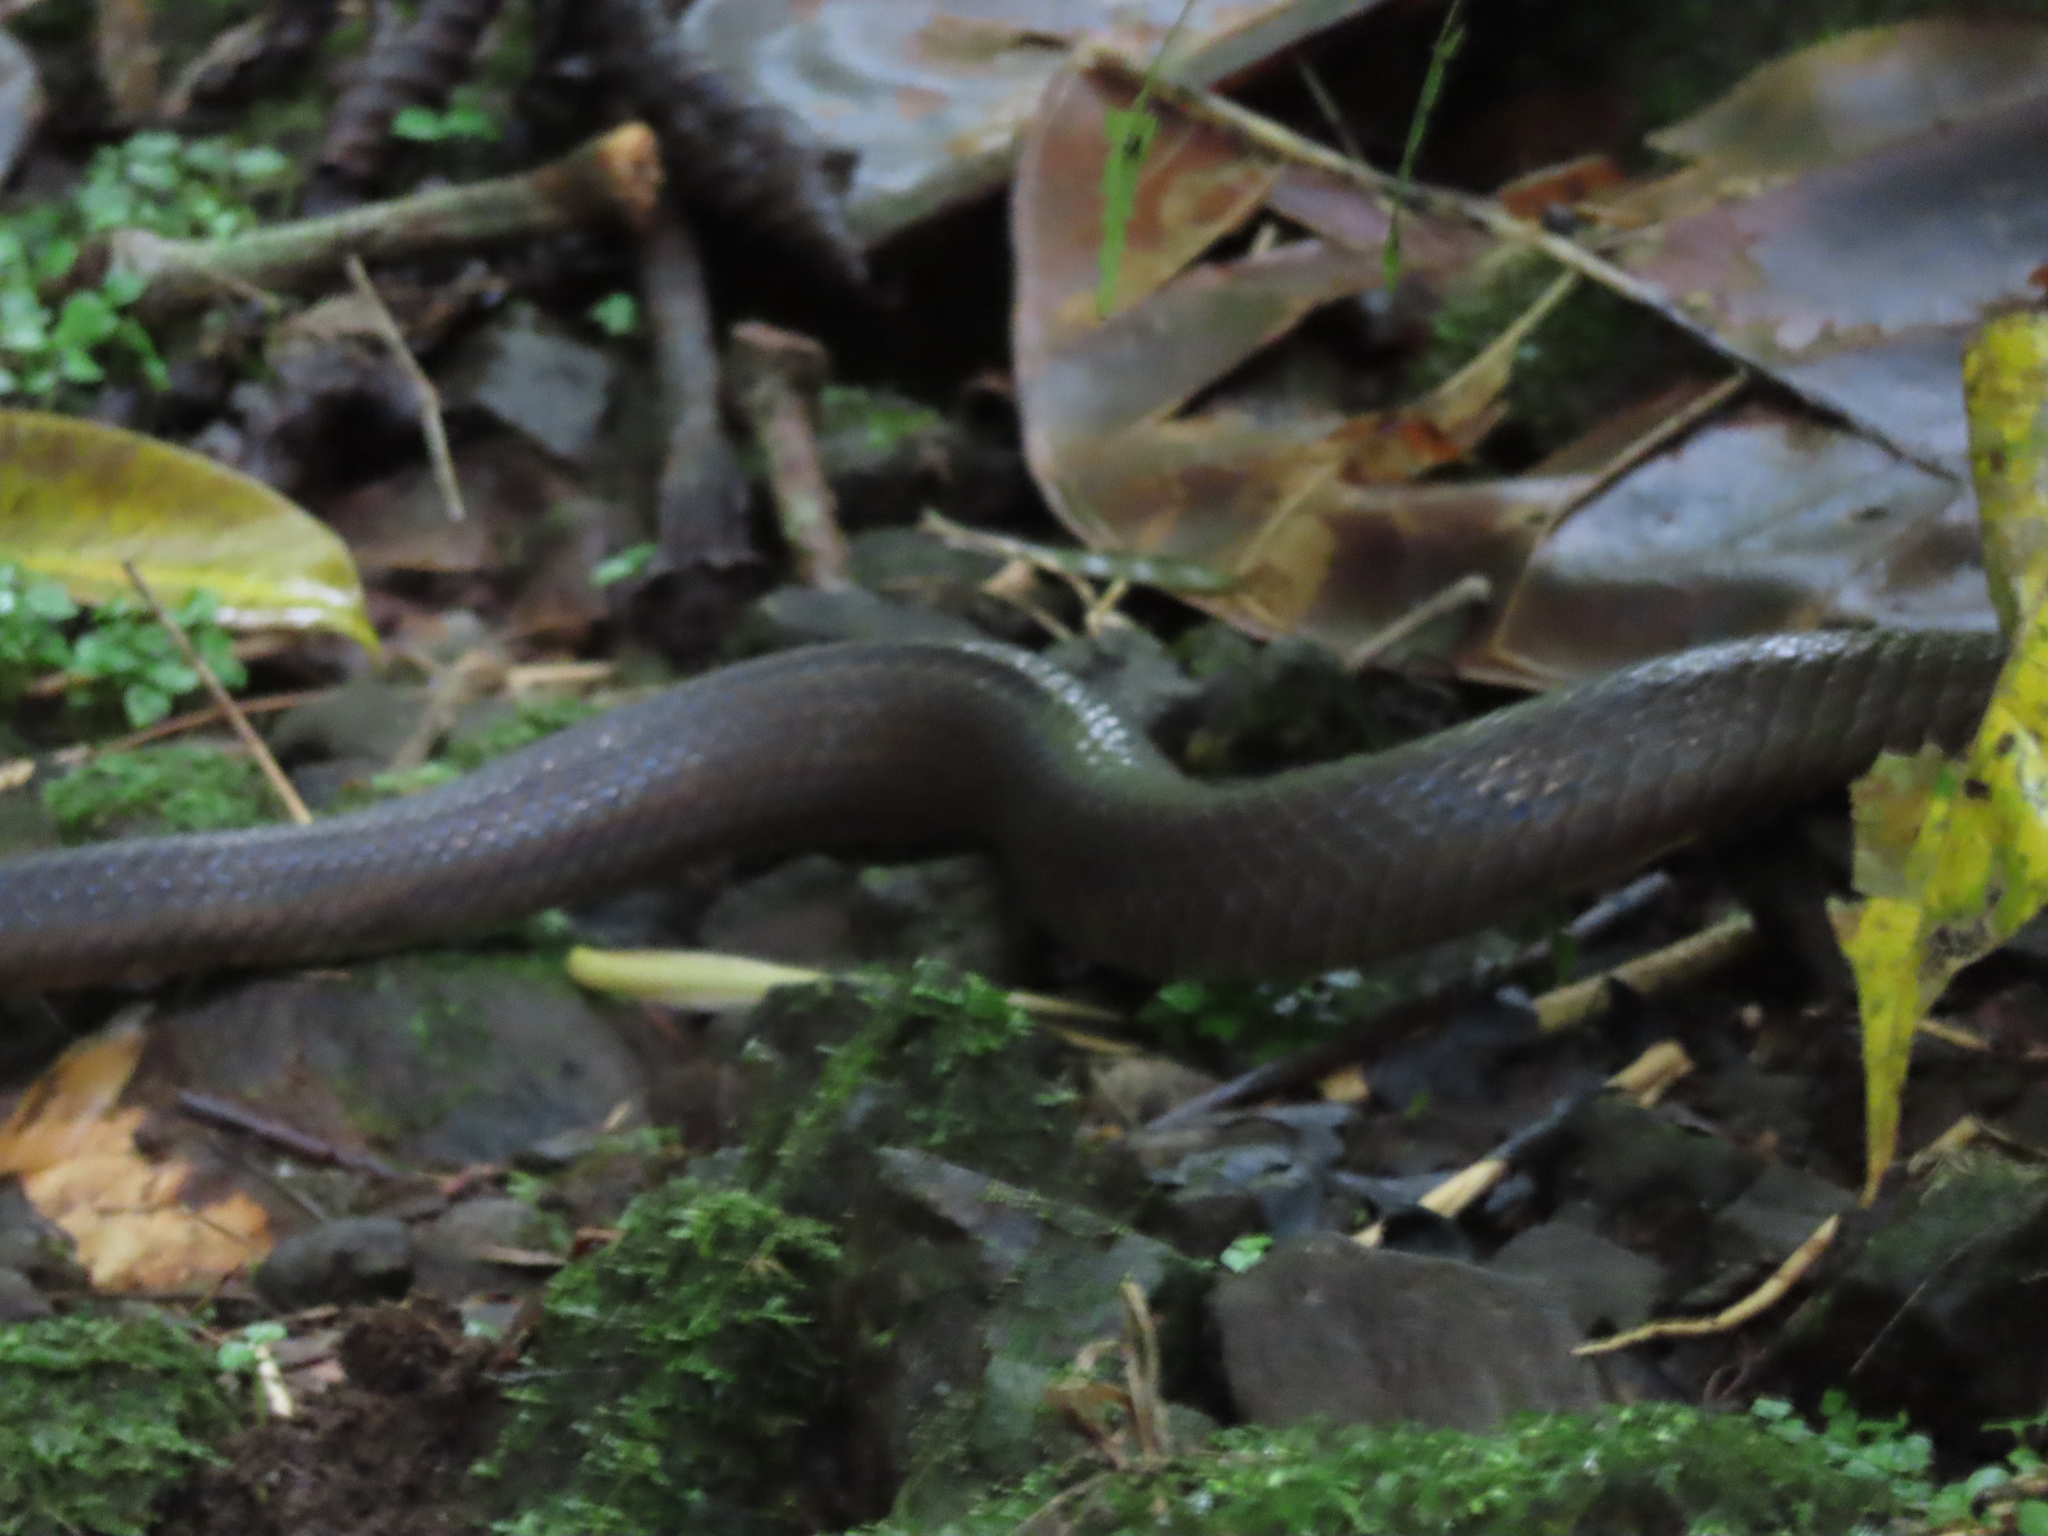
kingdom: Animalia
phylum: Chordata
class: Squamata
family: Colubridae
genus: Stenorrhina
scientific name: Stenorrhina degenhardtii
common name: Degenhardt's scorpion-eating snake
